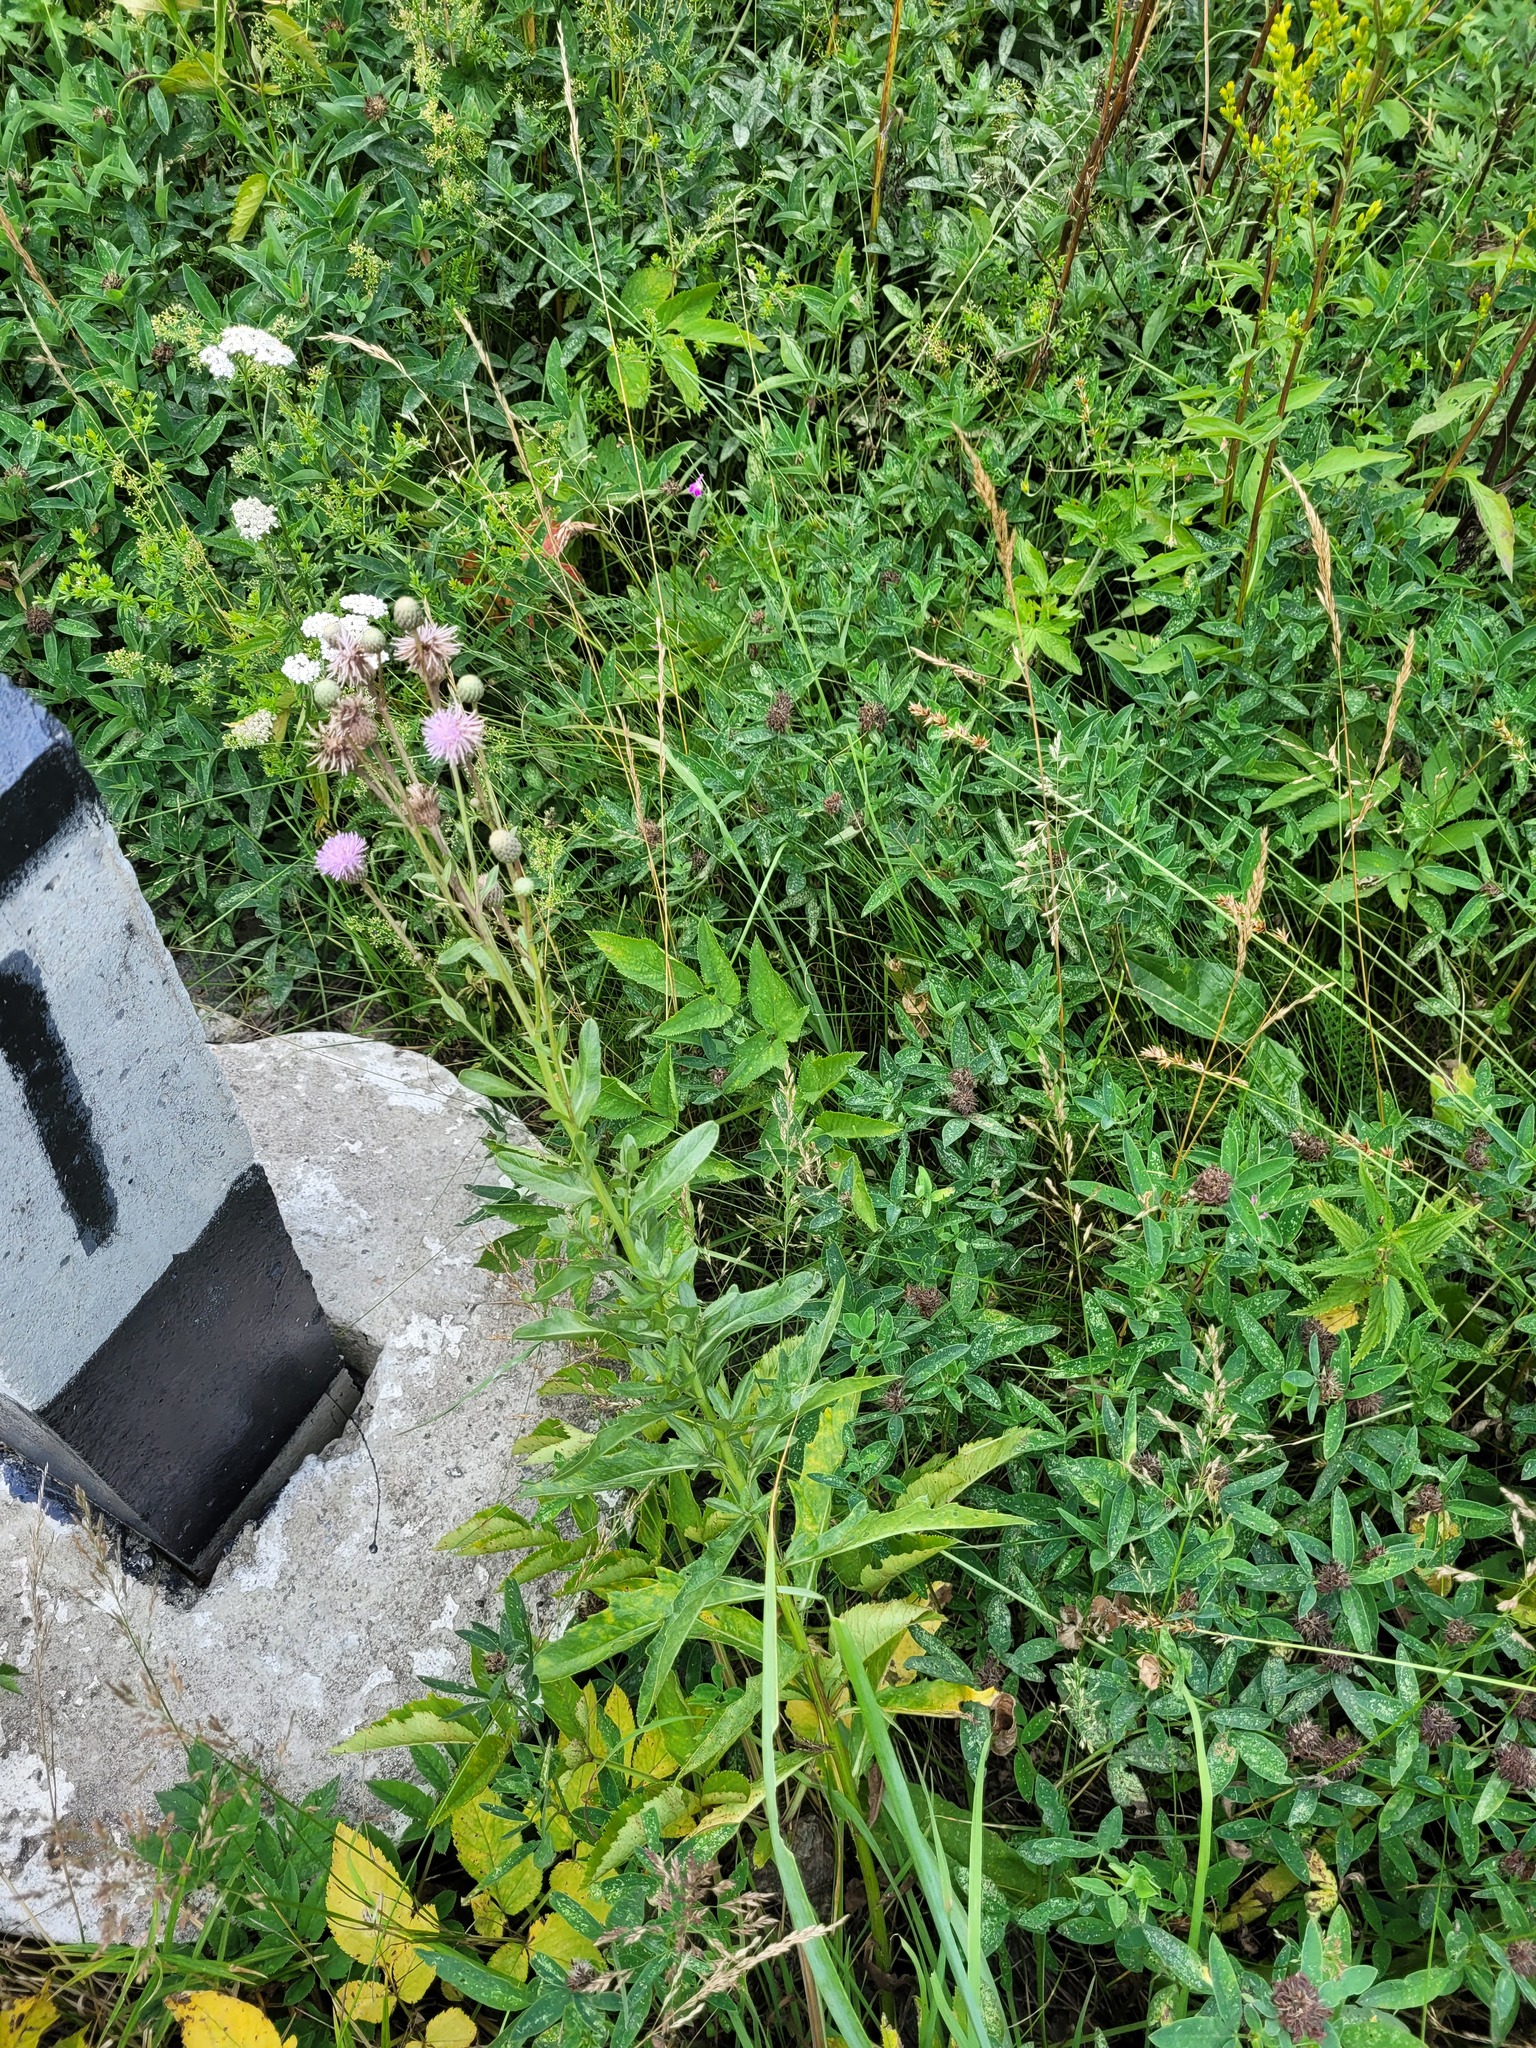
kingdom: Plantae
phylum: Tracheophyta
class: Magnoliopsida
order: Asterales
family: Asteraceae
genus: Cirsium
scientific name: Cirsium arvense
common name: Creeping thistle
